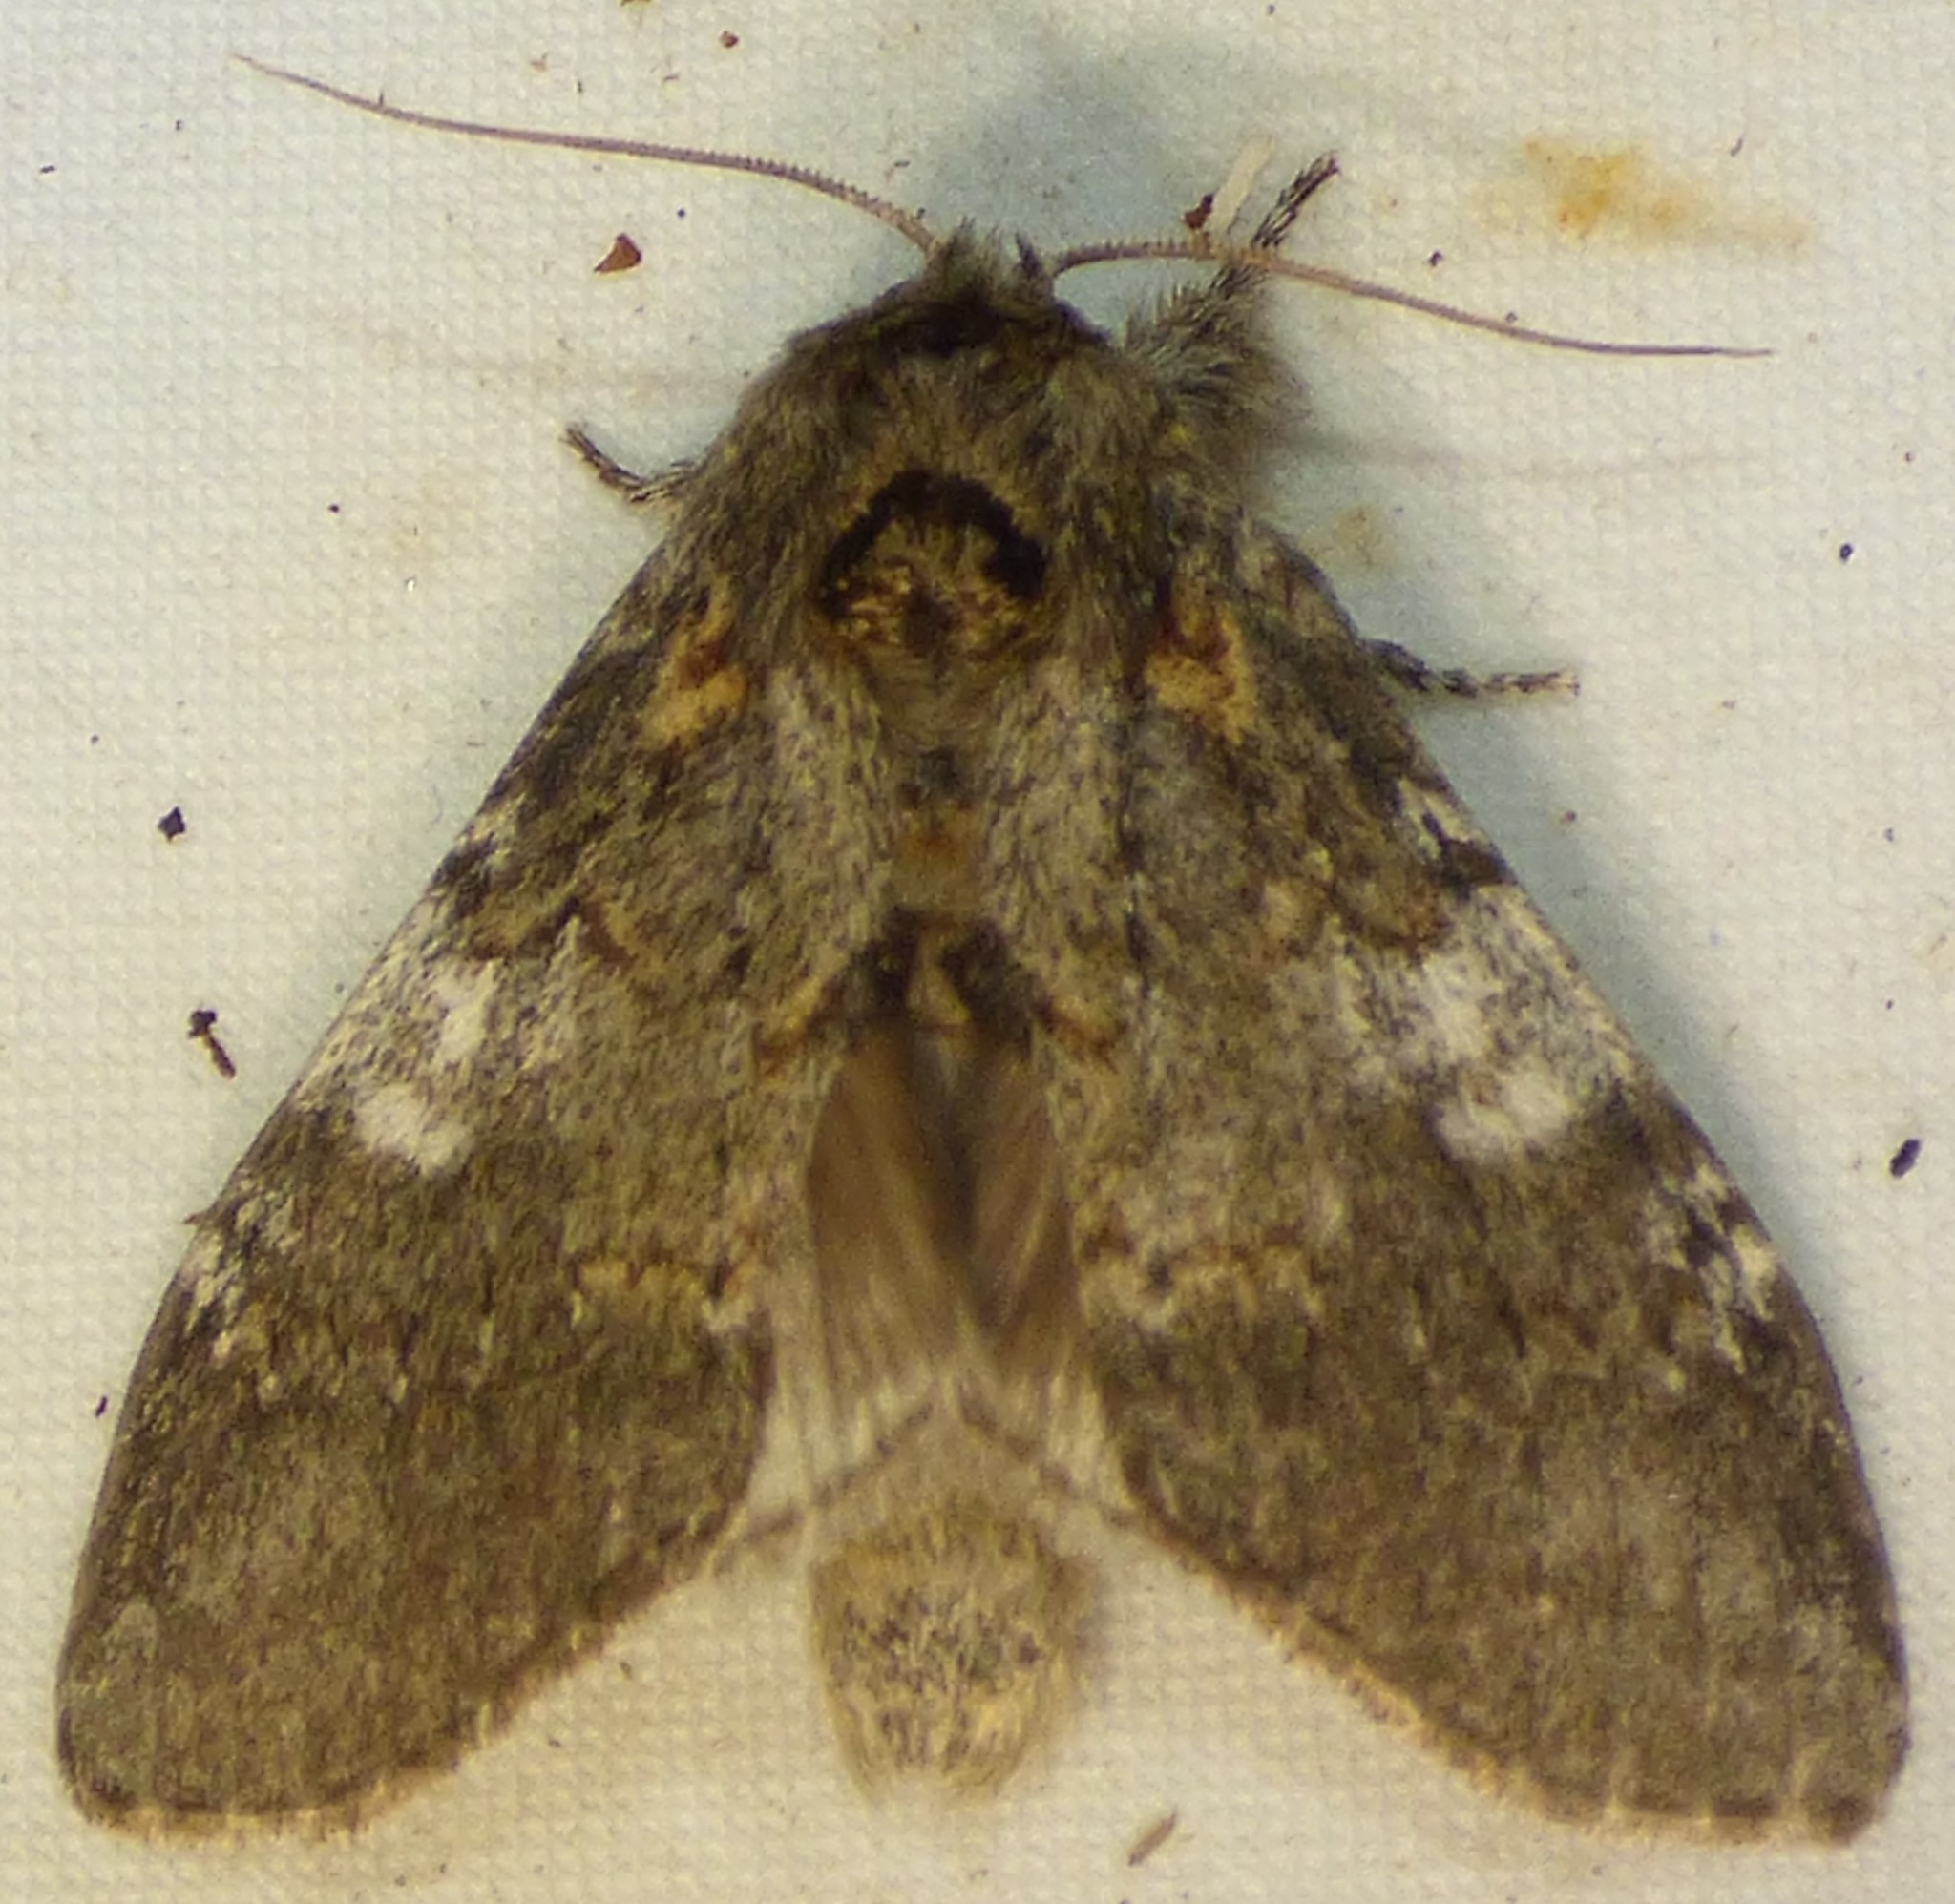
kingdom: Animalia
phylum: Arthropoda
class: Insecta
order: Lepidoptera
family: Notodontidae
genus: Peridea
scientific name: Peridea angulosa
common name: Angulose prominent
